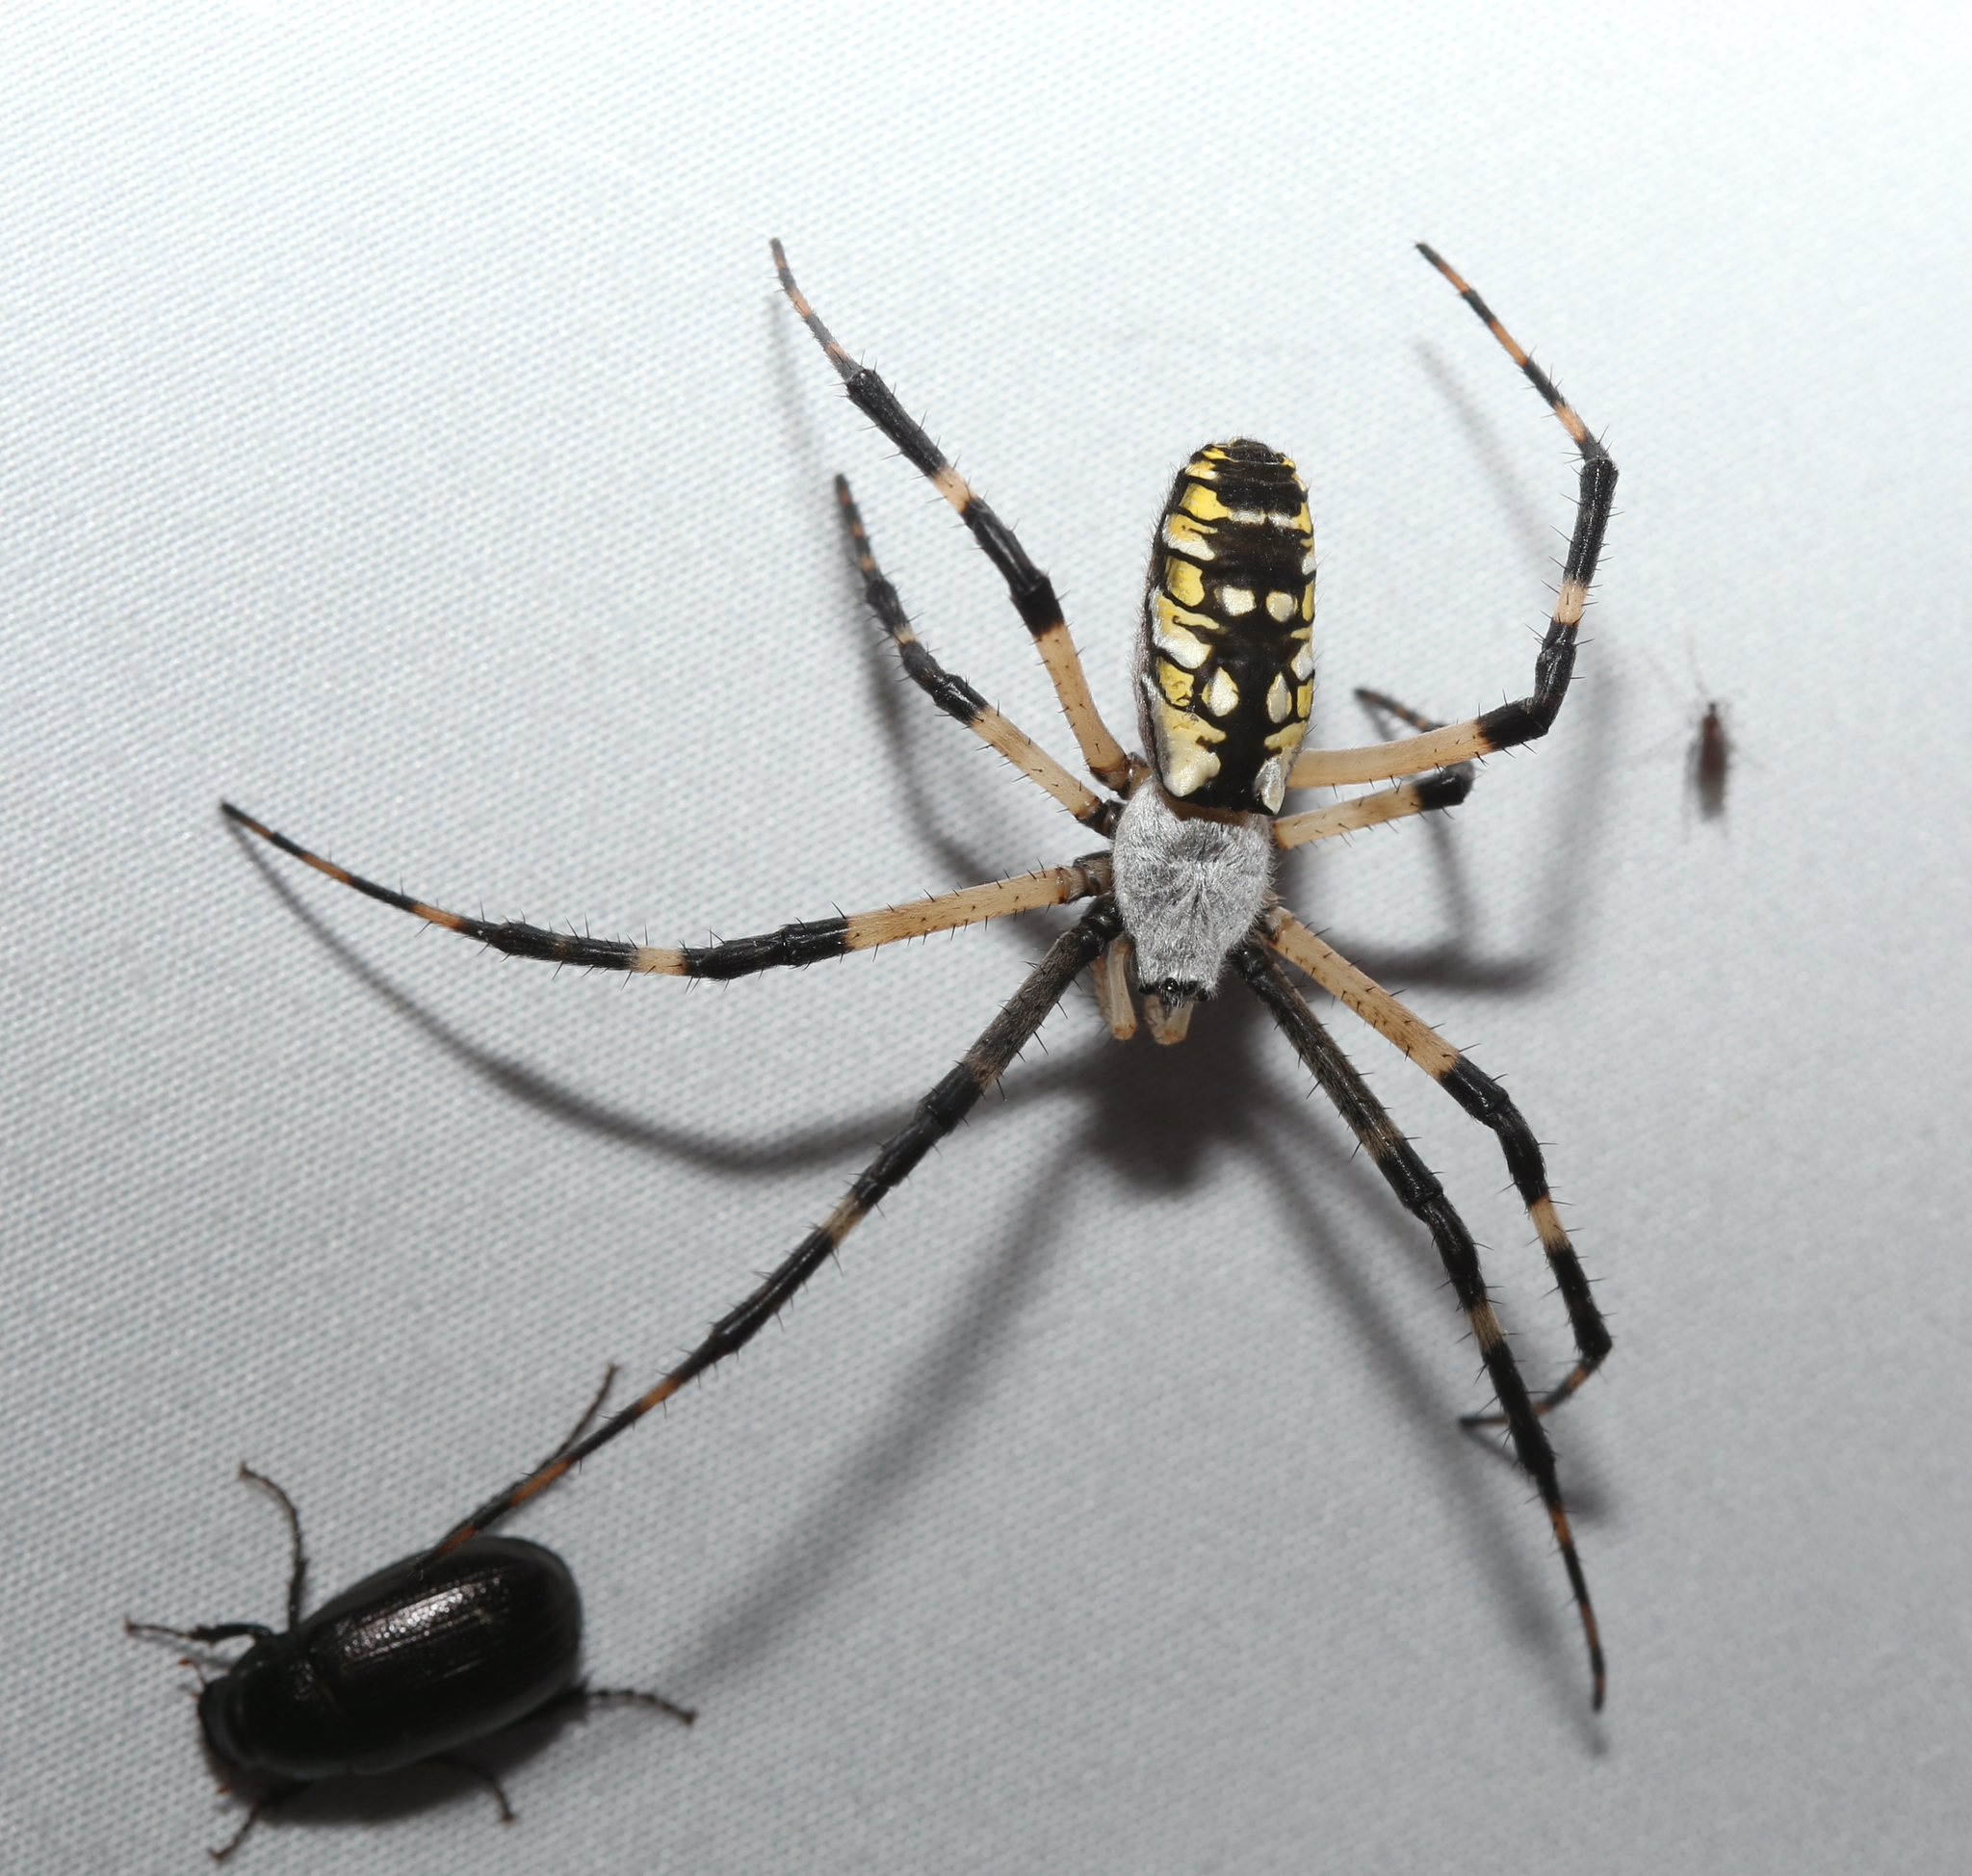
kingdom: Animalia
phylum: Arthropoda
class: Arachnida
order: Araneae
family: Araneidae
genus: Argiope
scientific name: Argiope aurantia
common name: Orb weavers
